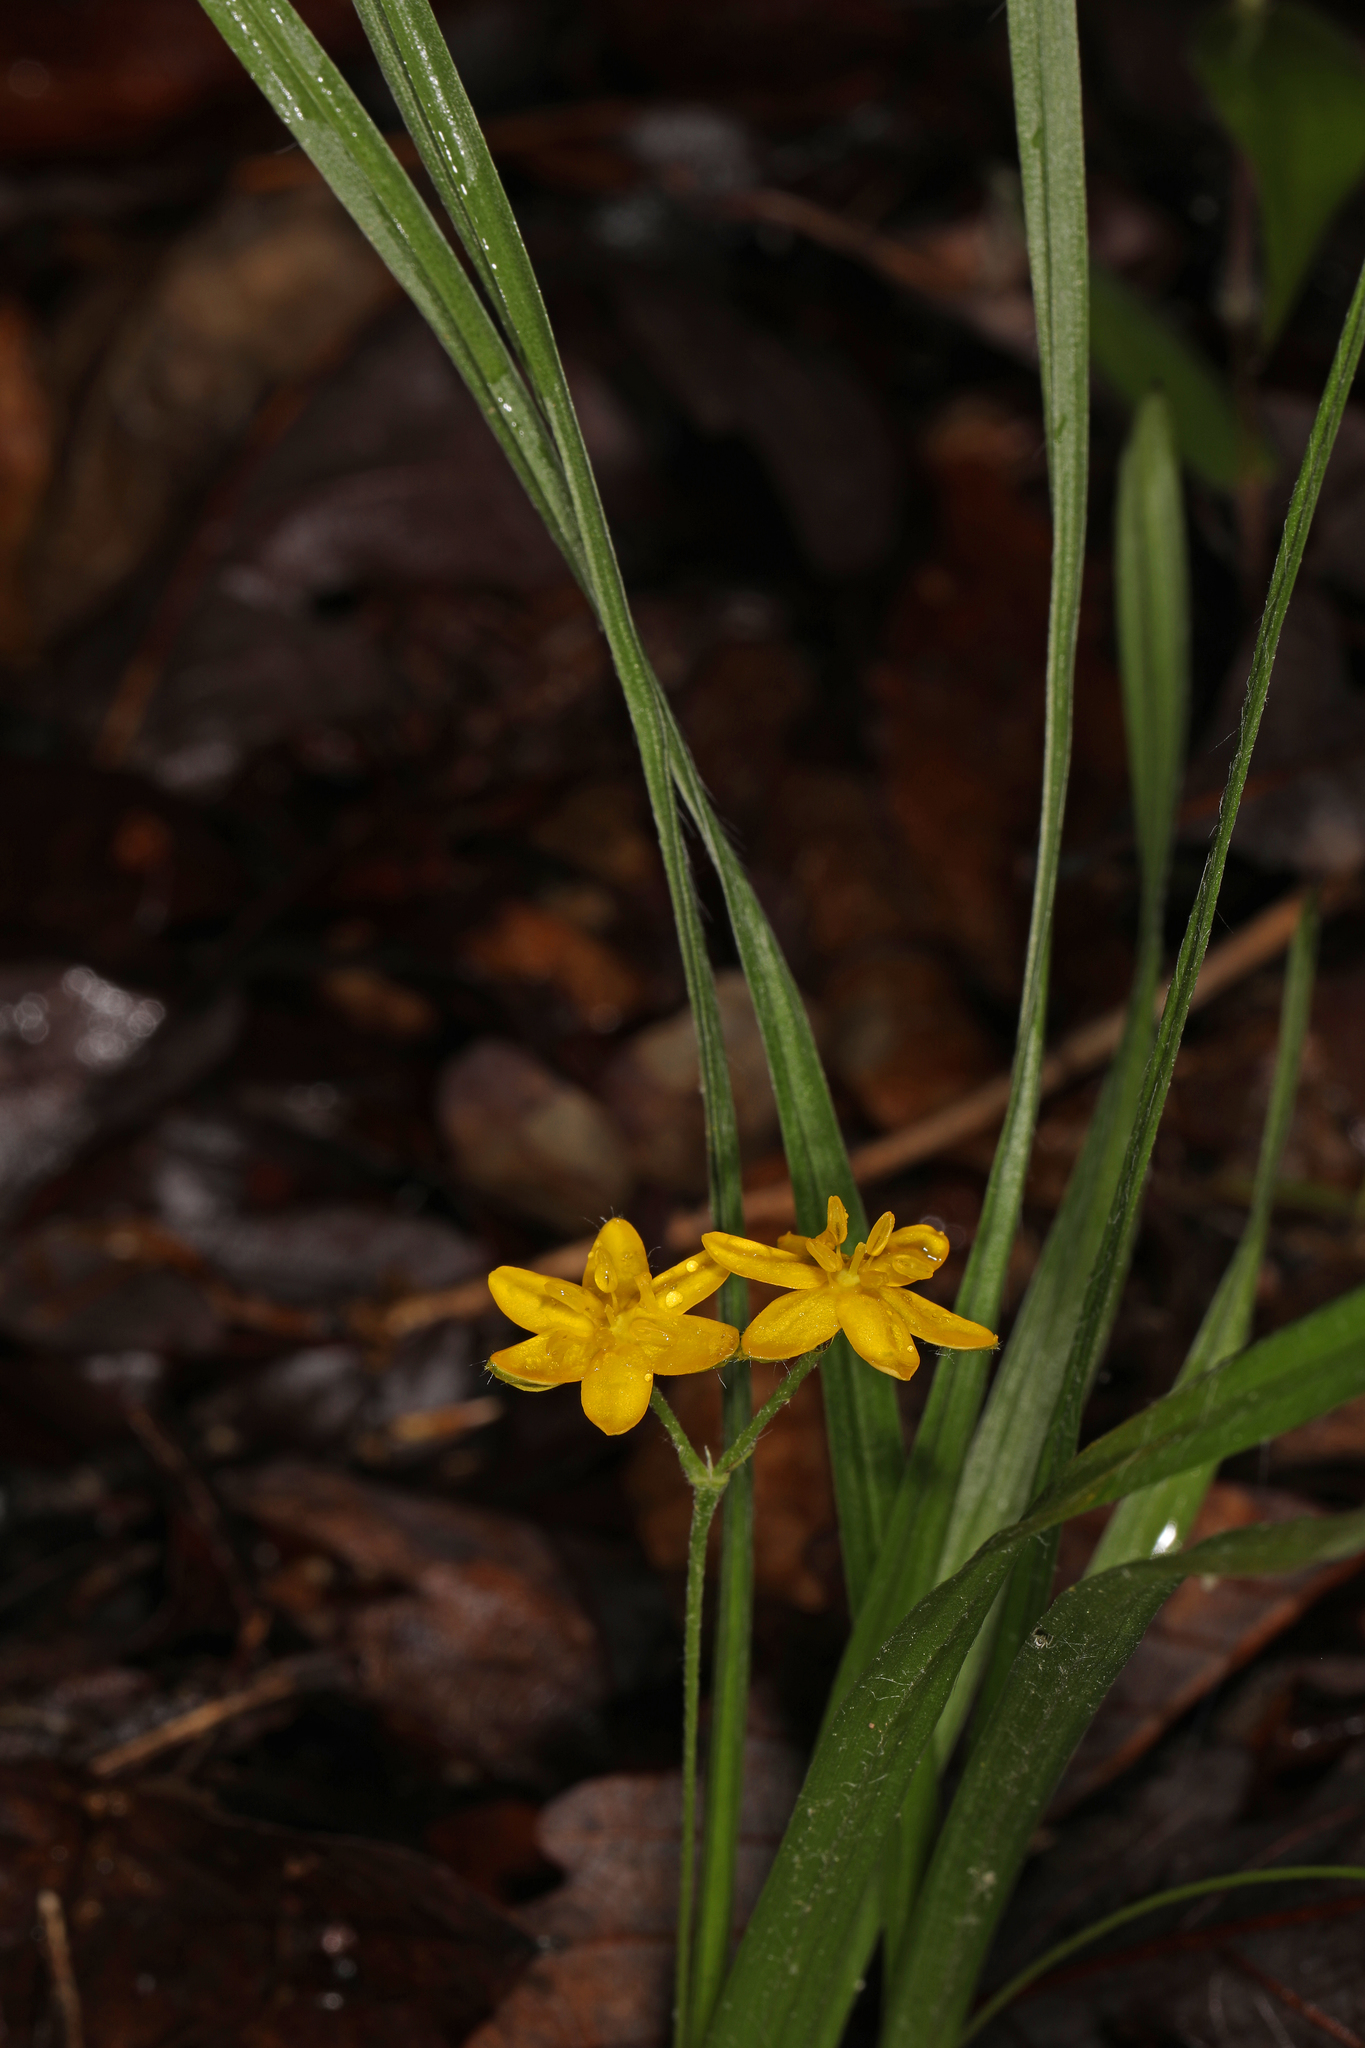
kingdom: Plantae
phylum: Tracheophyta
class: Liliopsida
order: Asparagales
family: Hypoxidaceae
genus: Hypoxis
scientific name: Hypoxis hirsuta
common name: Common goldstar
